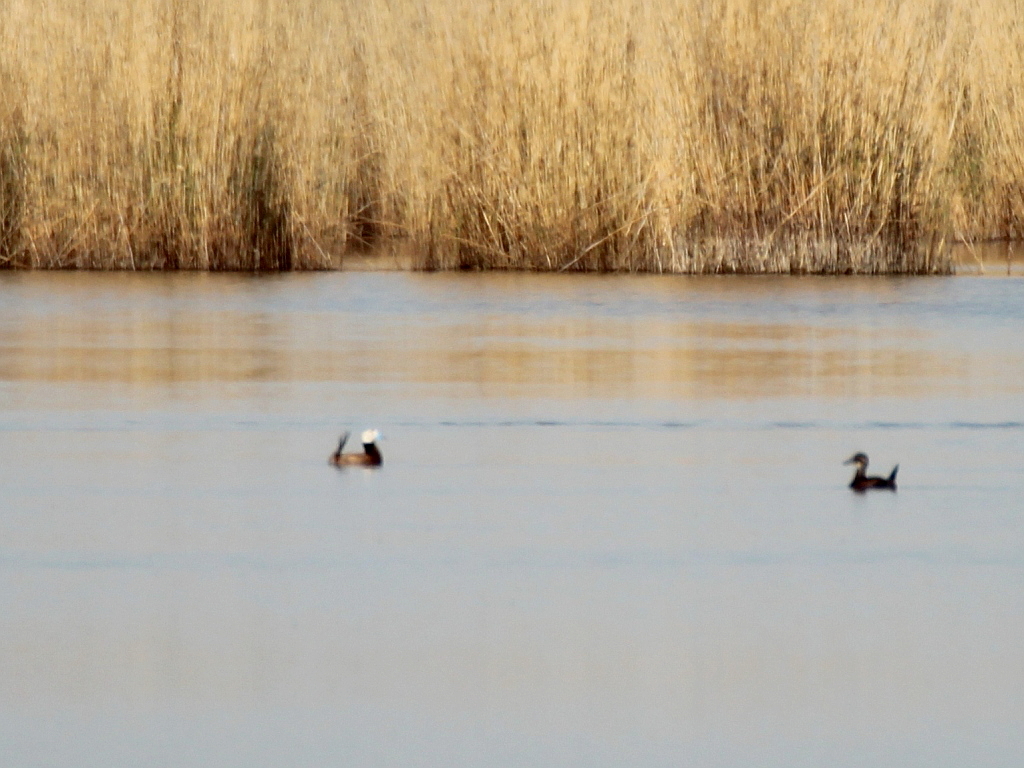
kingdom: Animalia
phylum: Chordata
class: Aves
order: Anseriformes
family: Anatidae
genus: Oxyura
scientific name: Oxyura leucocephala
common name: White-headed duck
